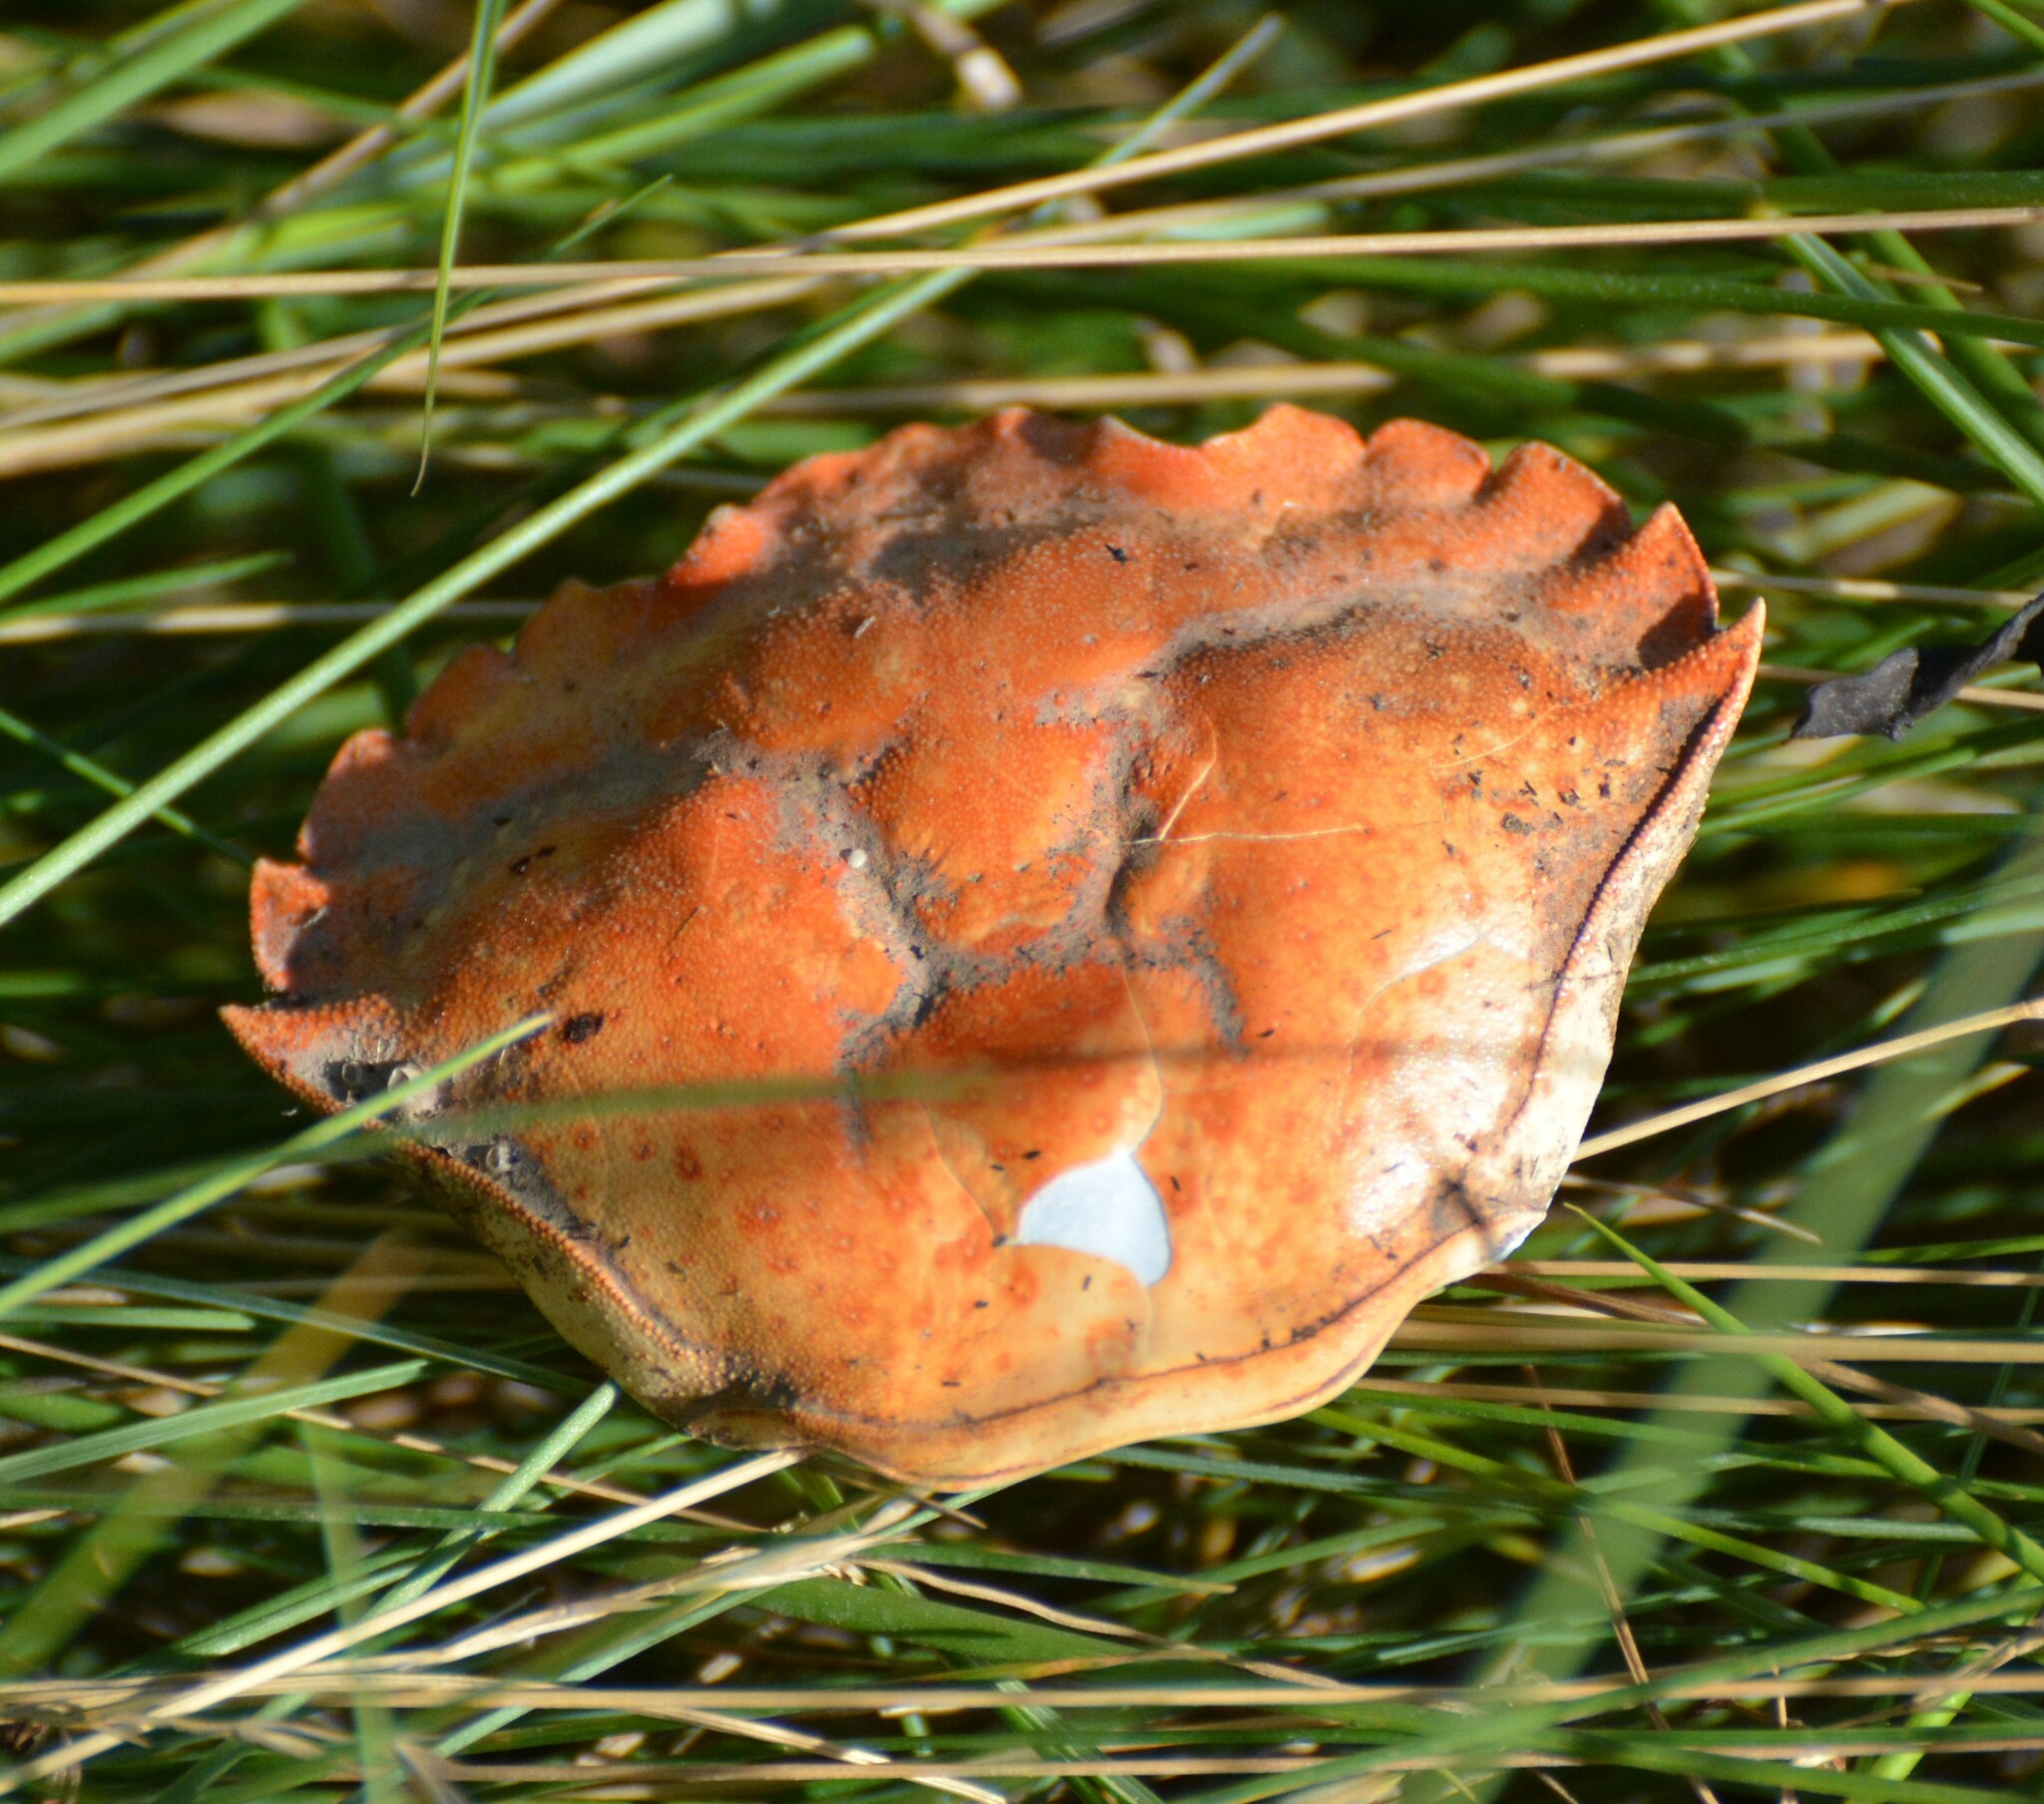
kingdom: Animalia
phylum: Arthropoda
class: Malacostraca
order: Decapoda
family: Carcinidae
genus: Carcinus
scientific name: Carcinus maenas
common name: European green crab
